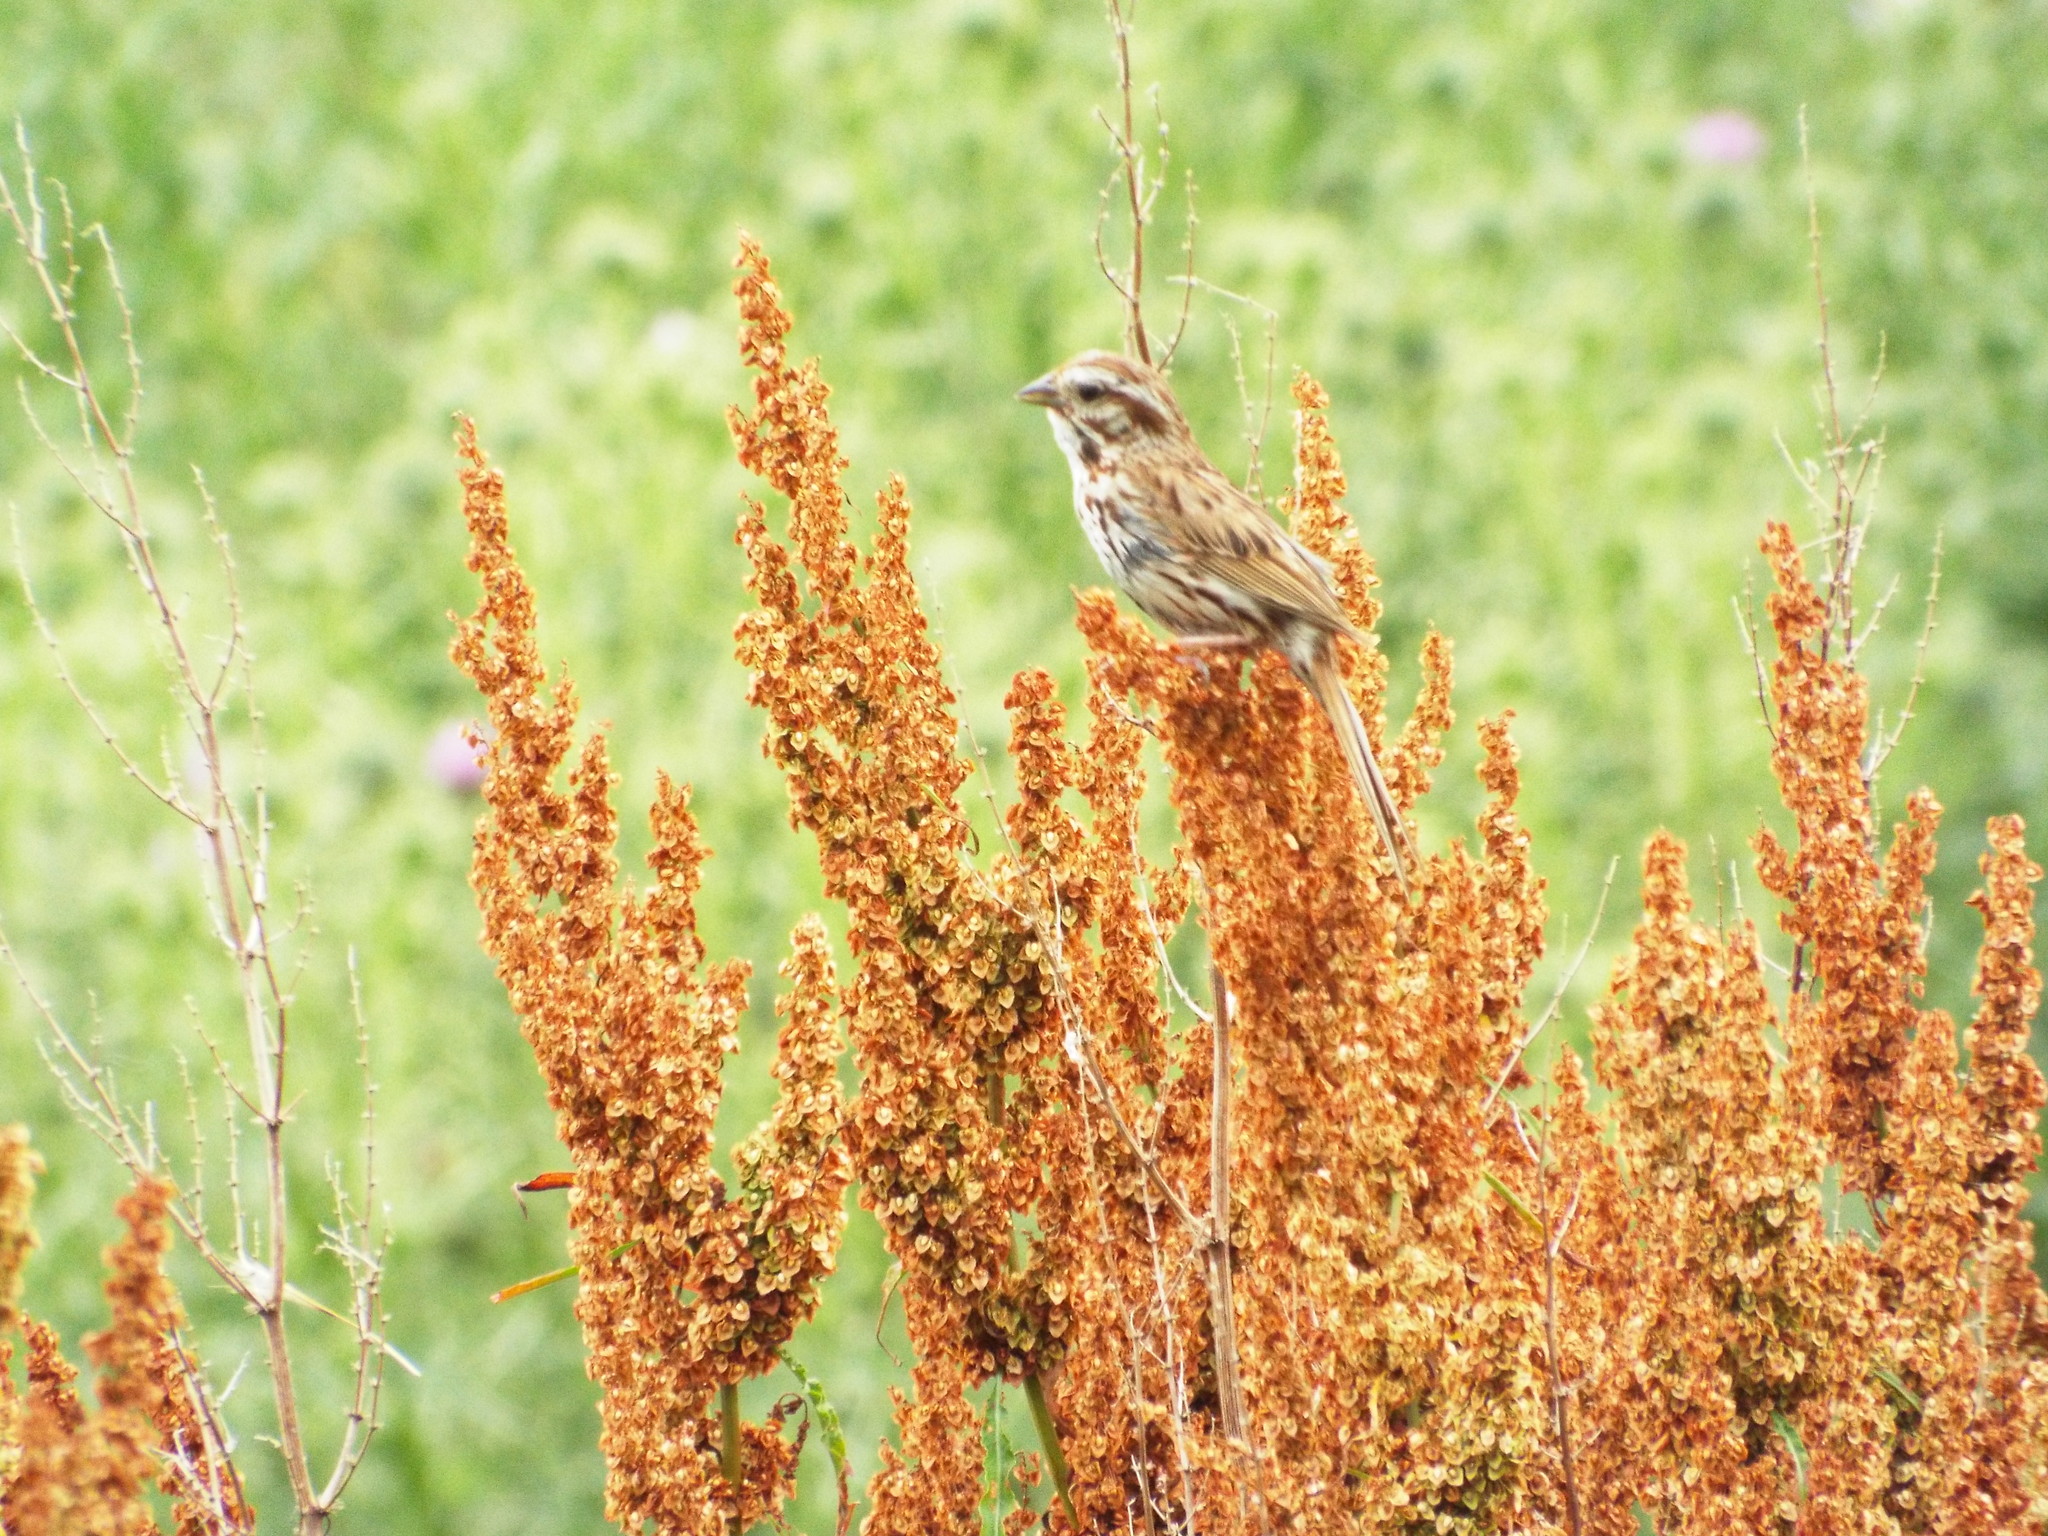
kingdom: Animalia
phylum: Chordata
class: Aves
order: Passeriformes
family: Passerellidae
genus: Melospiza
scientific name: Melospiza melodia
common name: Song sparrow
